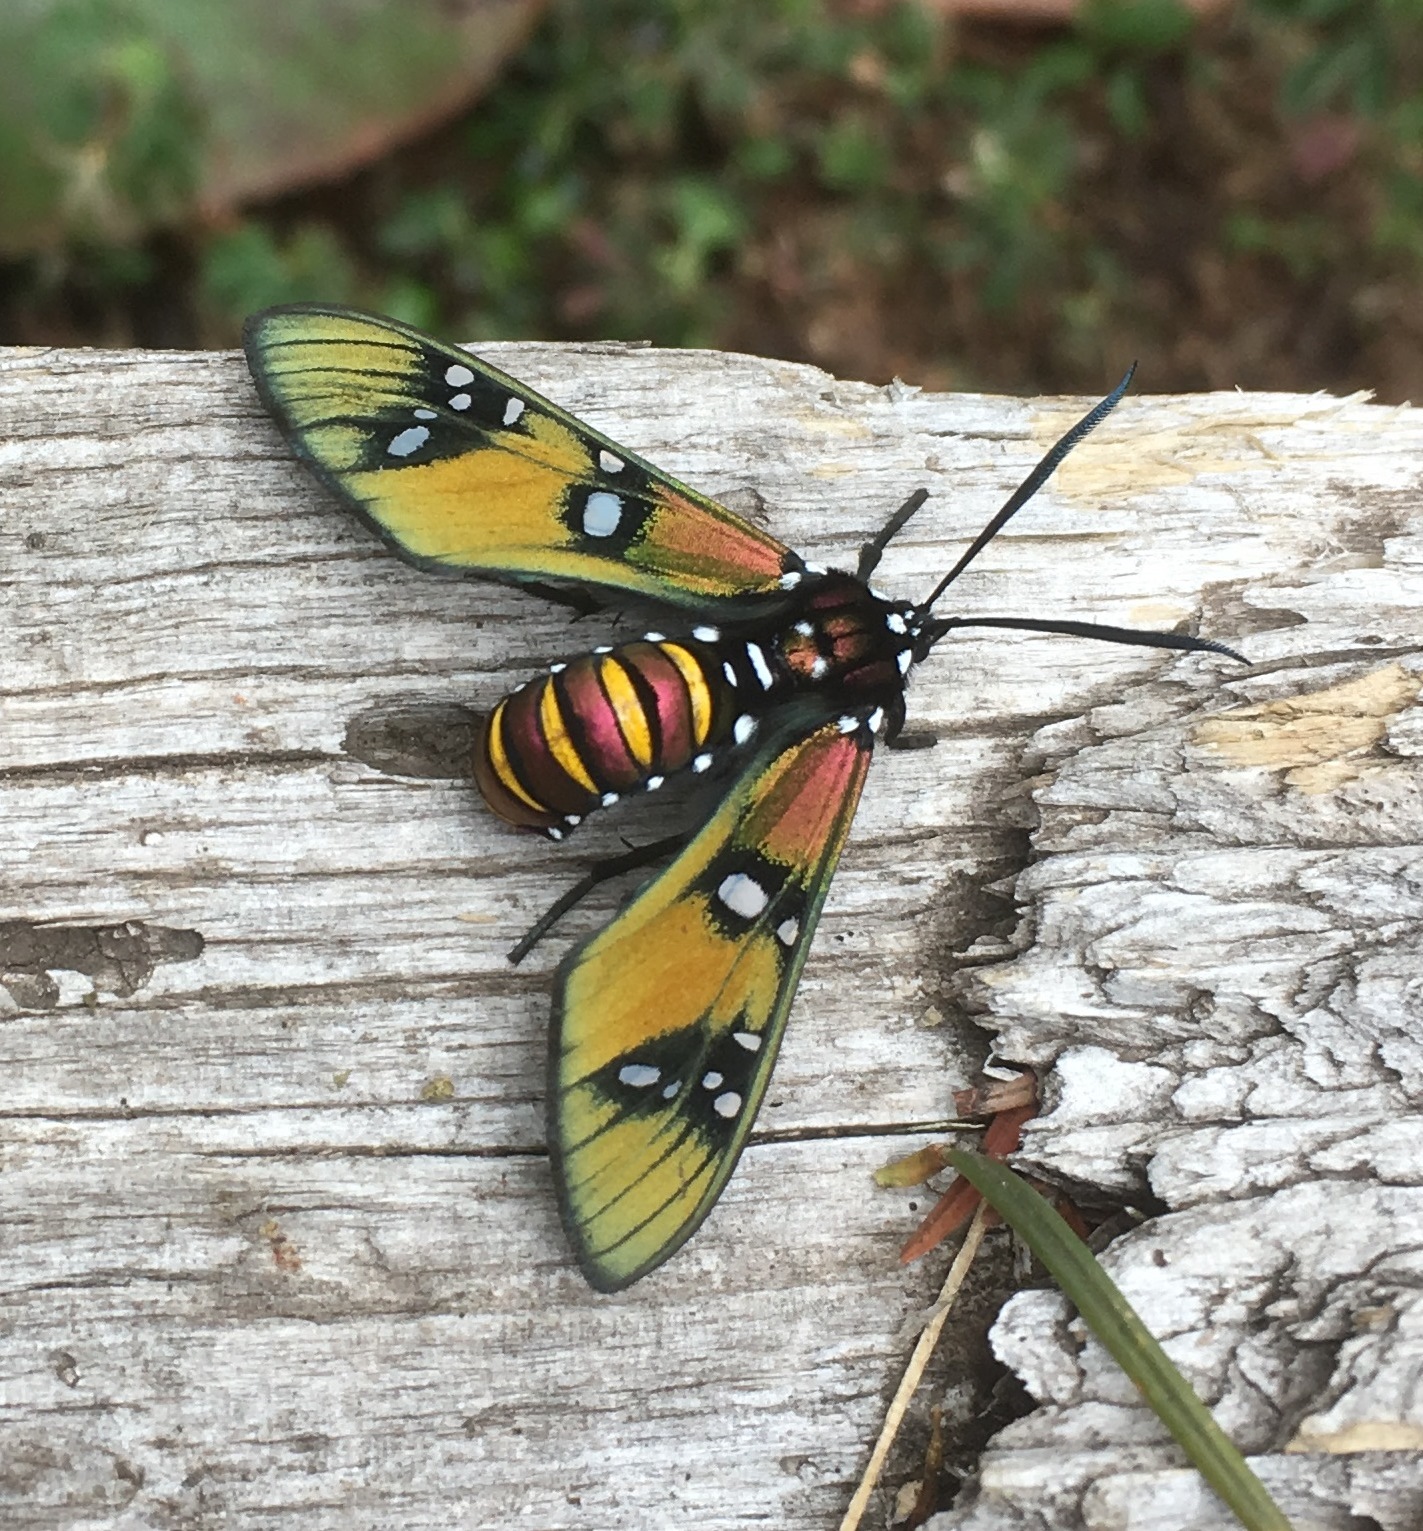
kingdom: Animalia
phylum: Arthropoda
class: Insecta
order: Lepidoptera
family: Erebidae
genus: Chrysocale
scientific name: Chrysocale principalis
